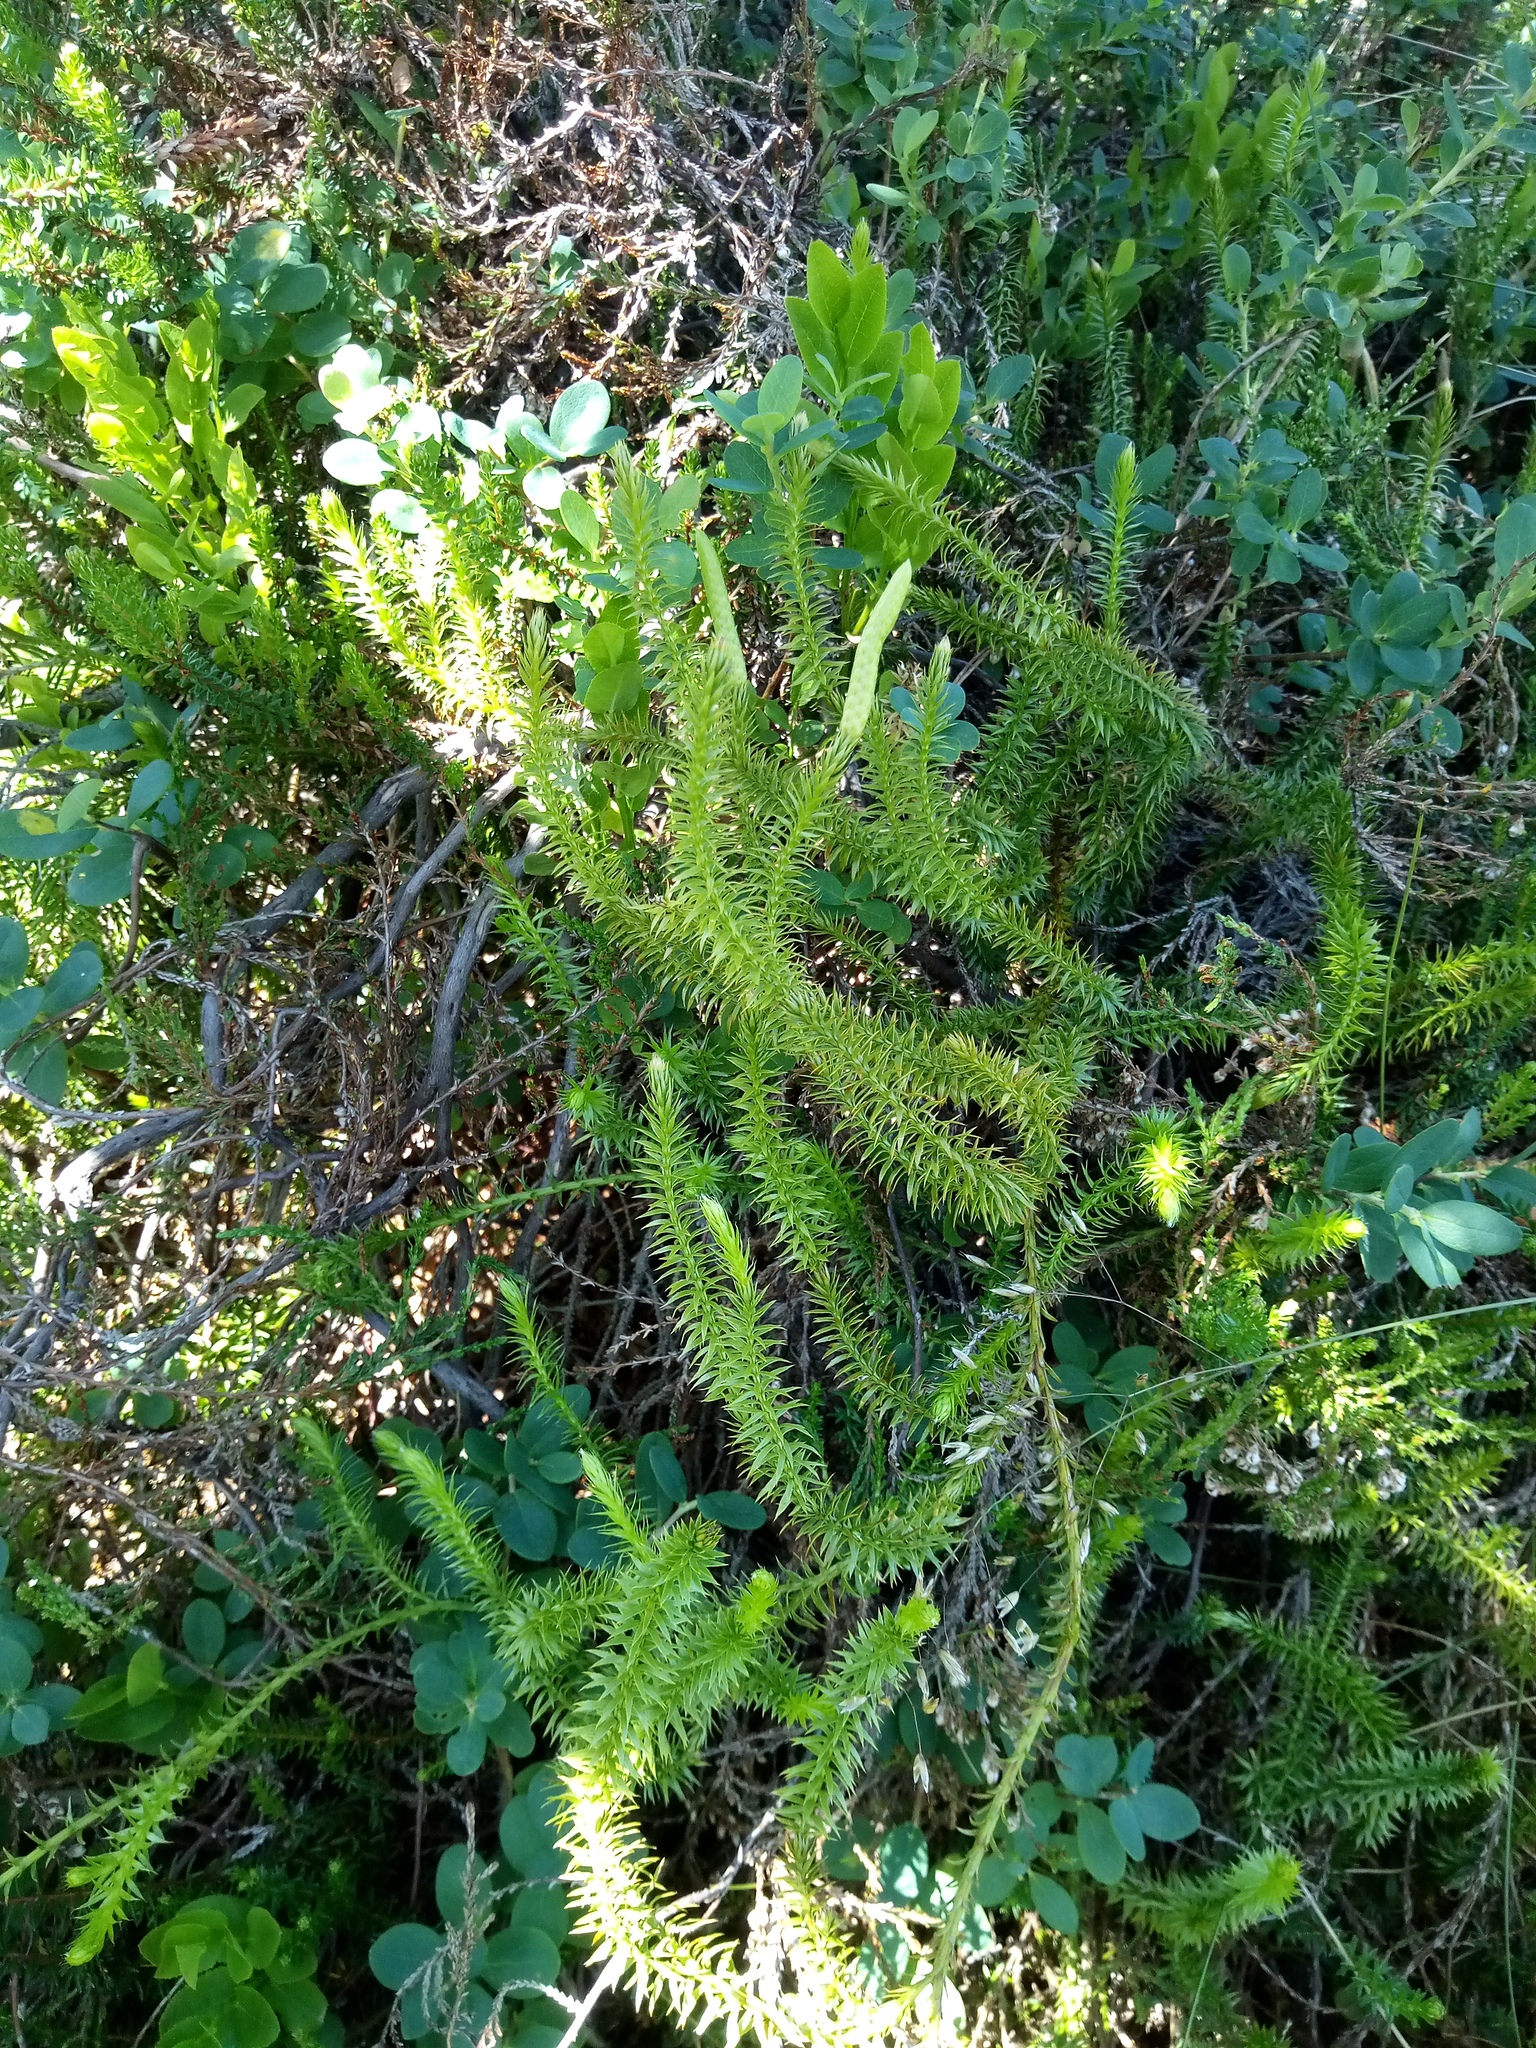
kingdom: Plantae
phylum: Tracheophyta
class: Lycopodiopsida
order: Lycopodiales
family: Lycopodiaceae
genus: Spinulum
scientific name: Spinulum annotinum
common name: Interrupted club-moss
